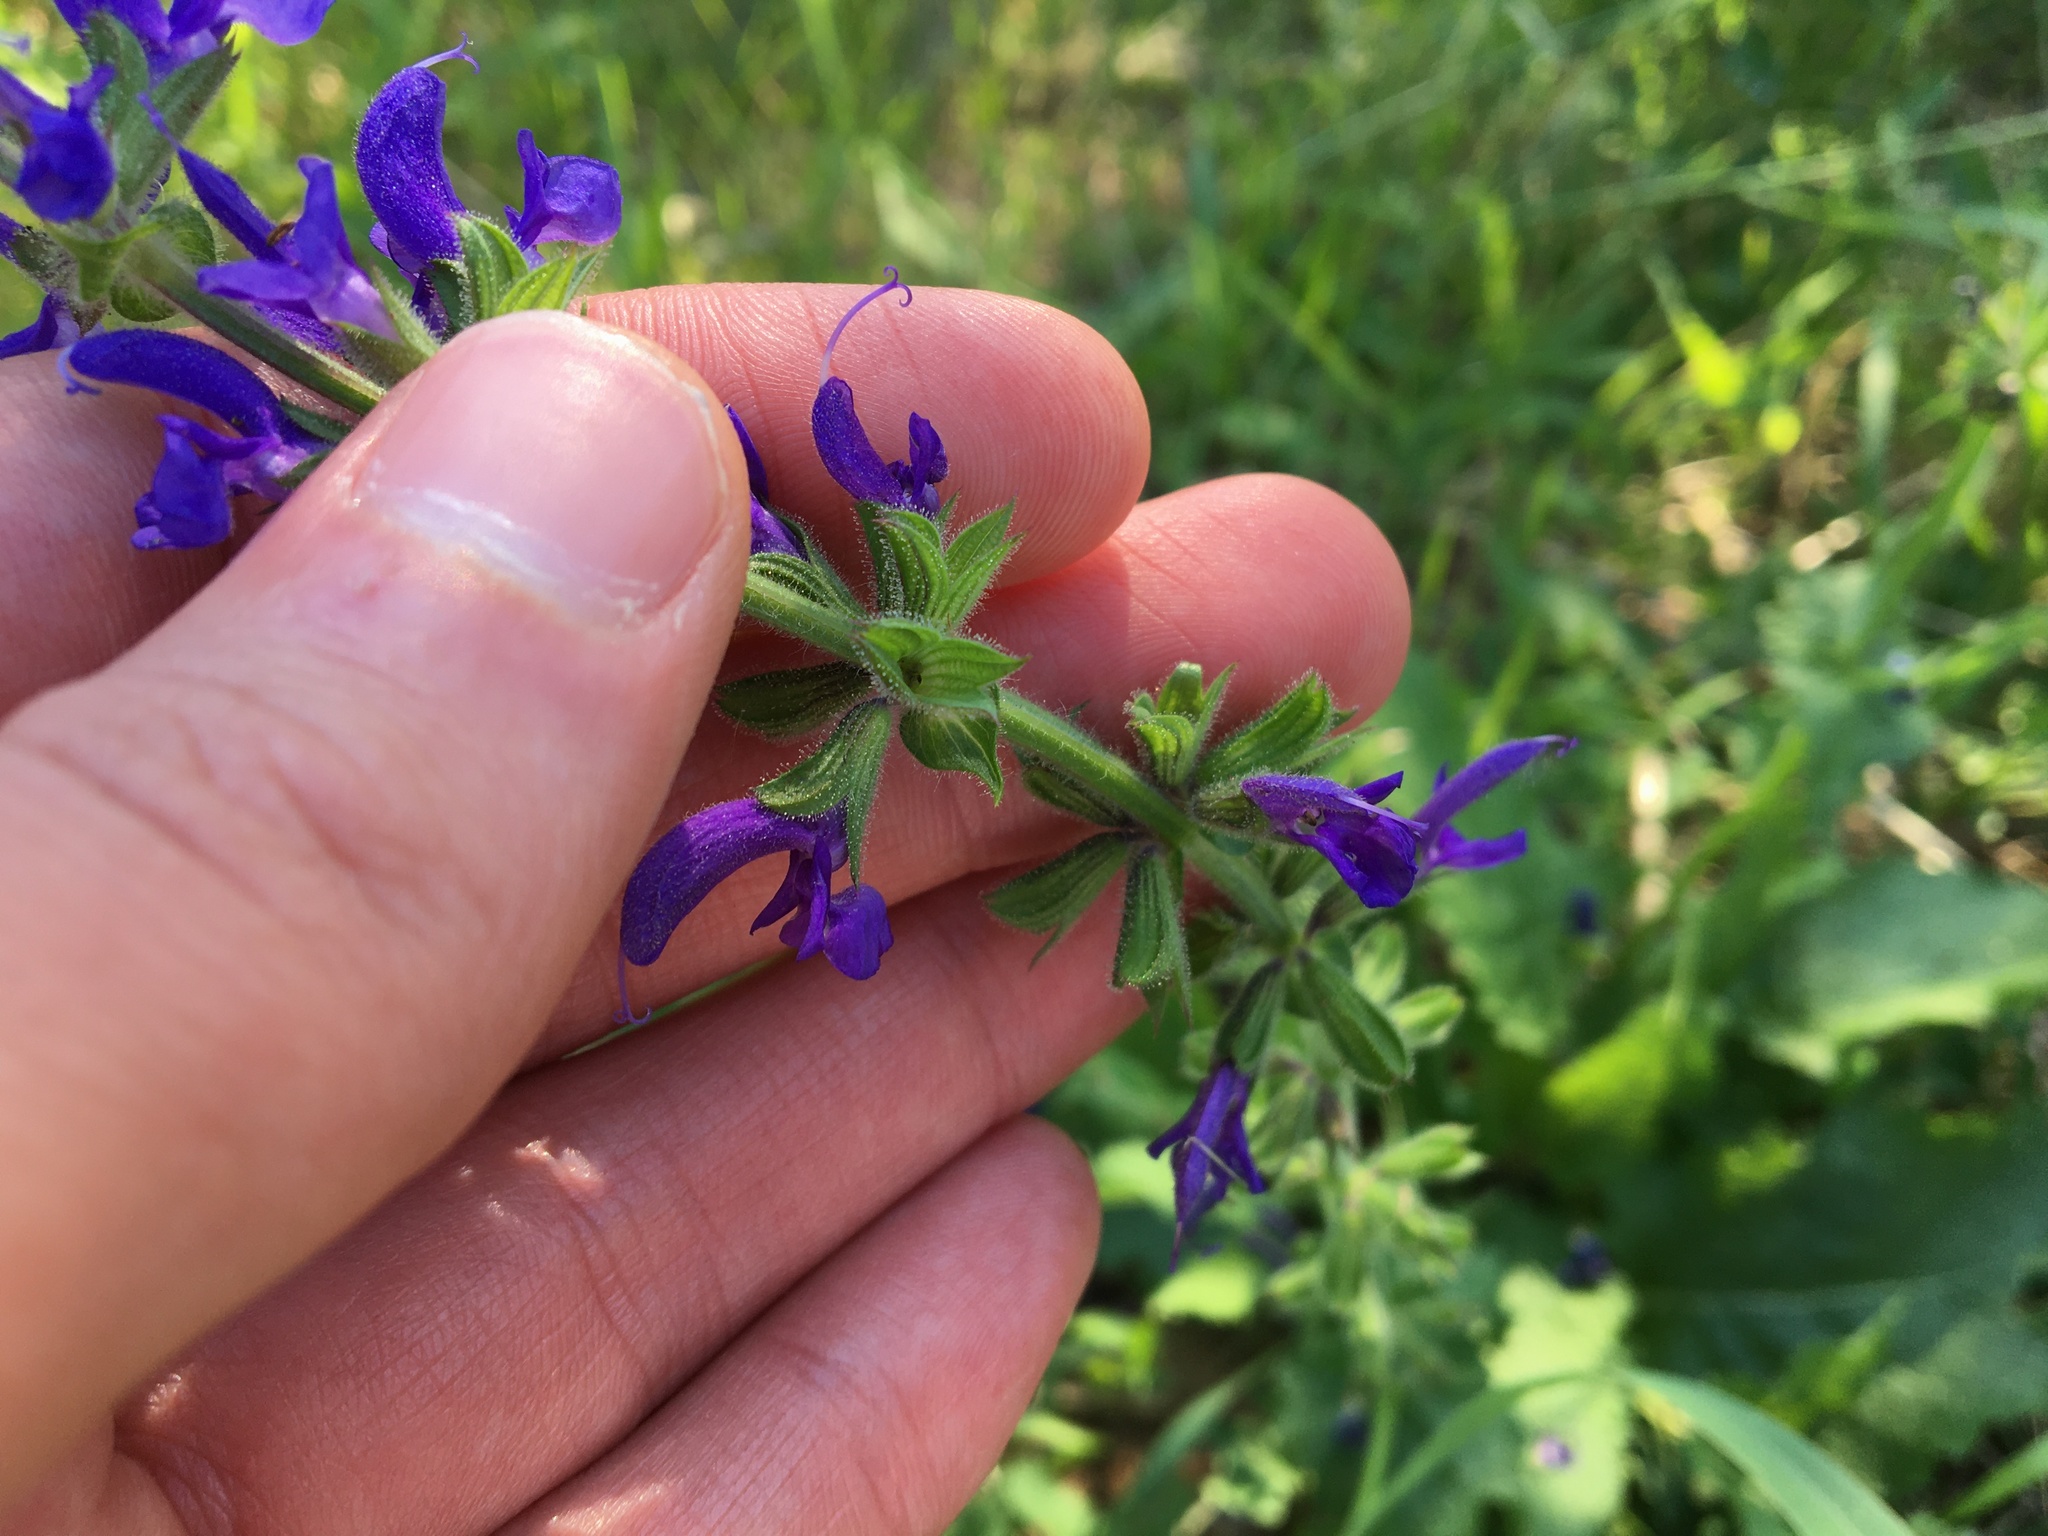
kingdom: Plantae
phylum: Tracheophyta
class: Magnoliopsida
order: Lamiales
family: Lamiaceae
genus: Salvia
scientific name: Salvia pratensis
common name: Meadow sage
